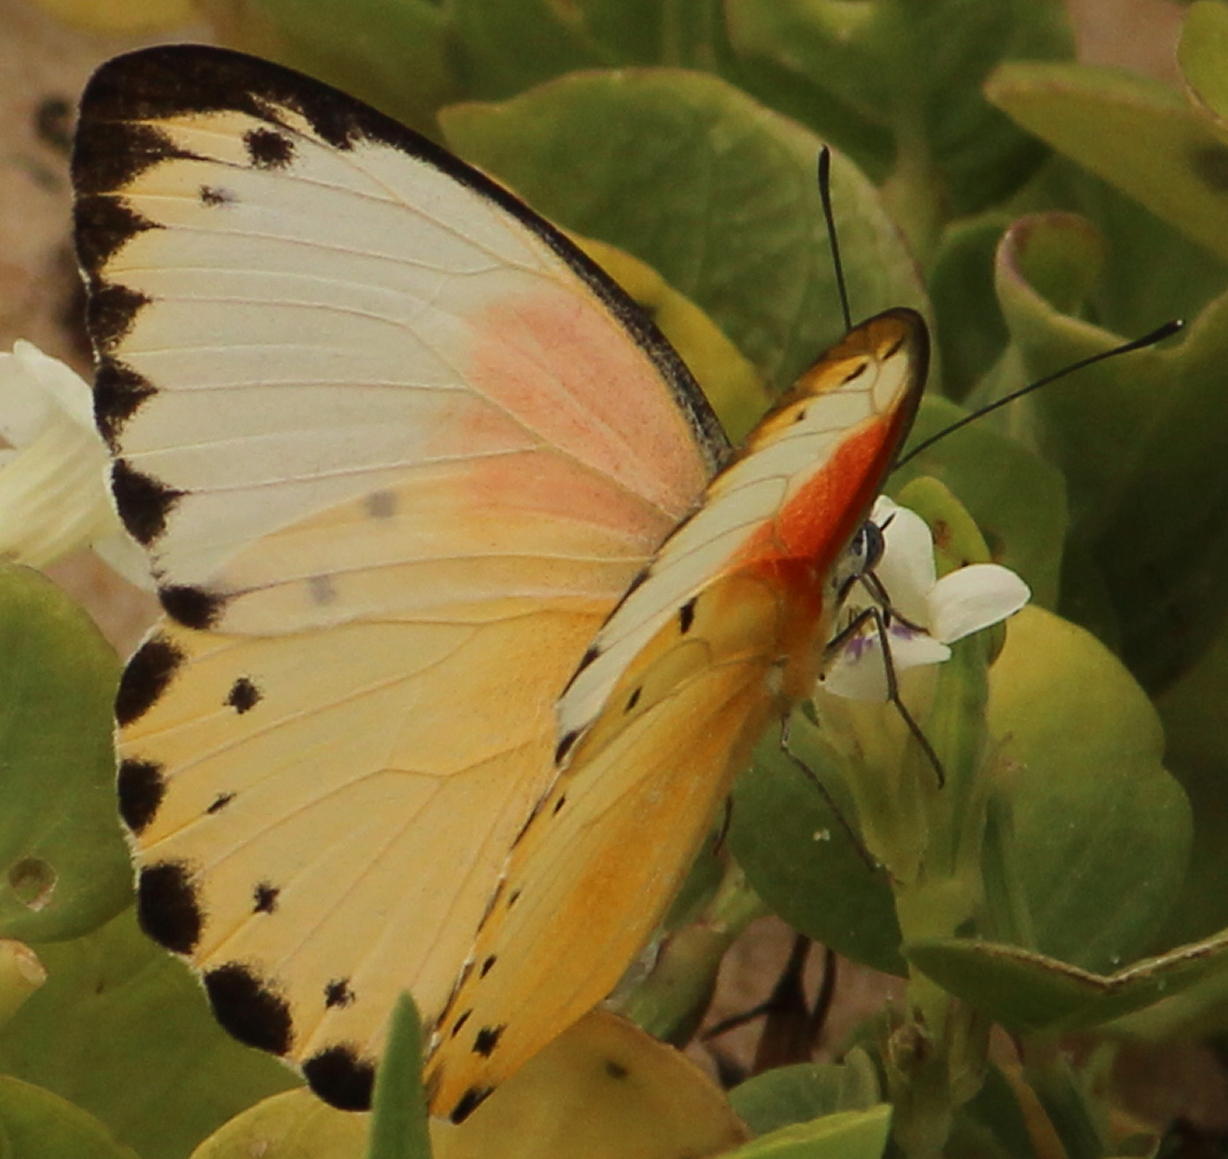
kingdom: Animalia
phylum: Arthropoda
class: Insecta
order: Lepidoptera
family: Pieridae
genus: Belenois
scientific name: Belenois thysa
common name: False dotted border
